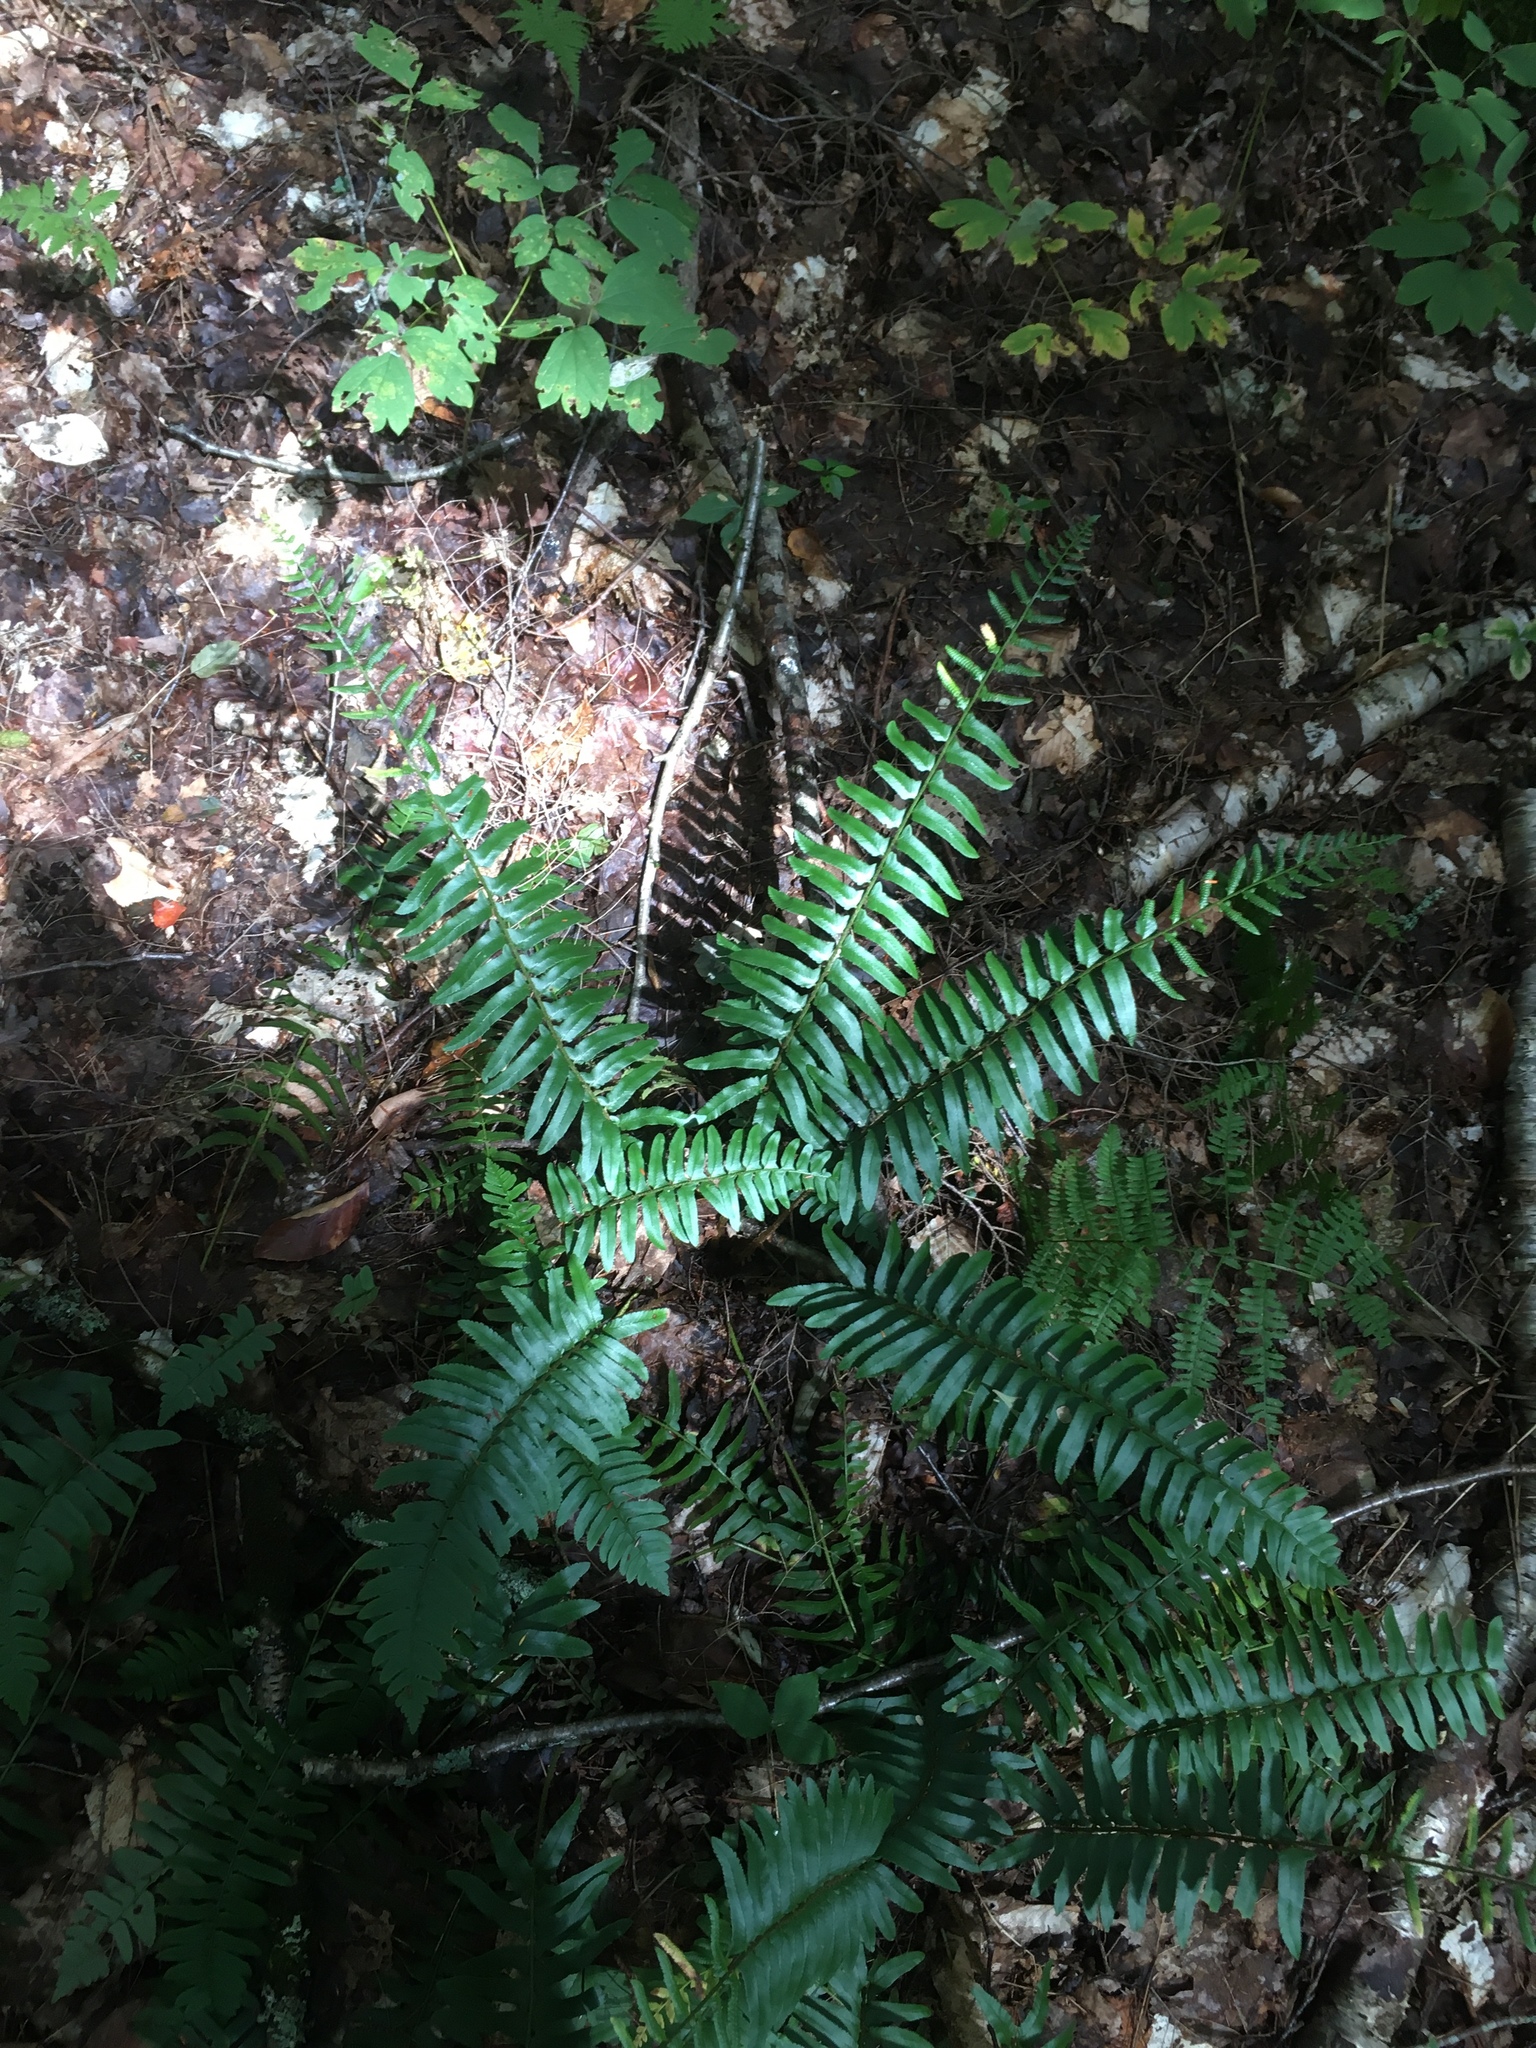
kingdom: Plantae
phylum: Tracheophyta
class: Polypodiopsida
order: Polypodiales
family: Dryopteridaceae
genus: Polystichum
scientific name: Polystichum acrostichoides
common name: Christmas fern
